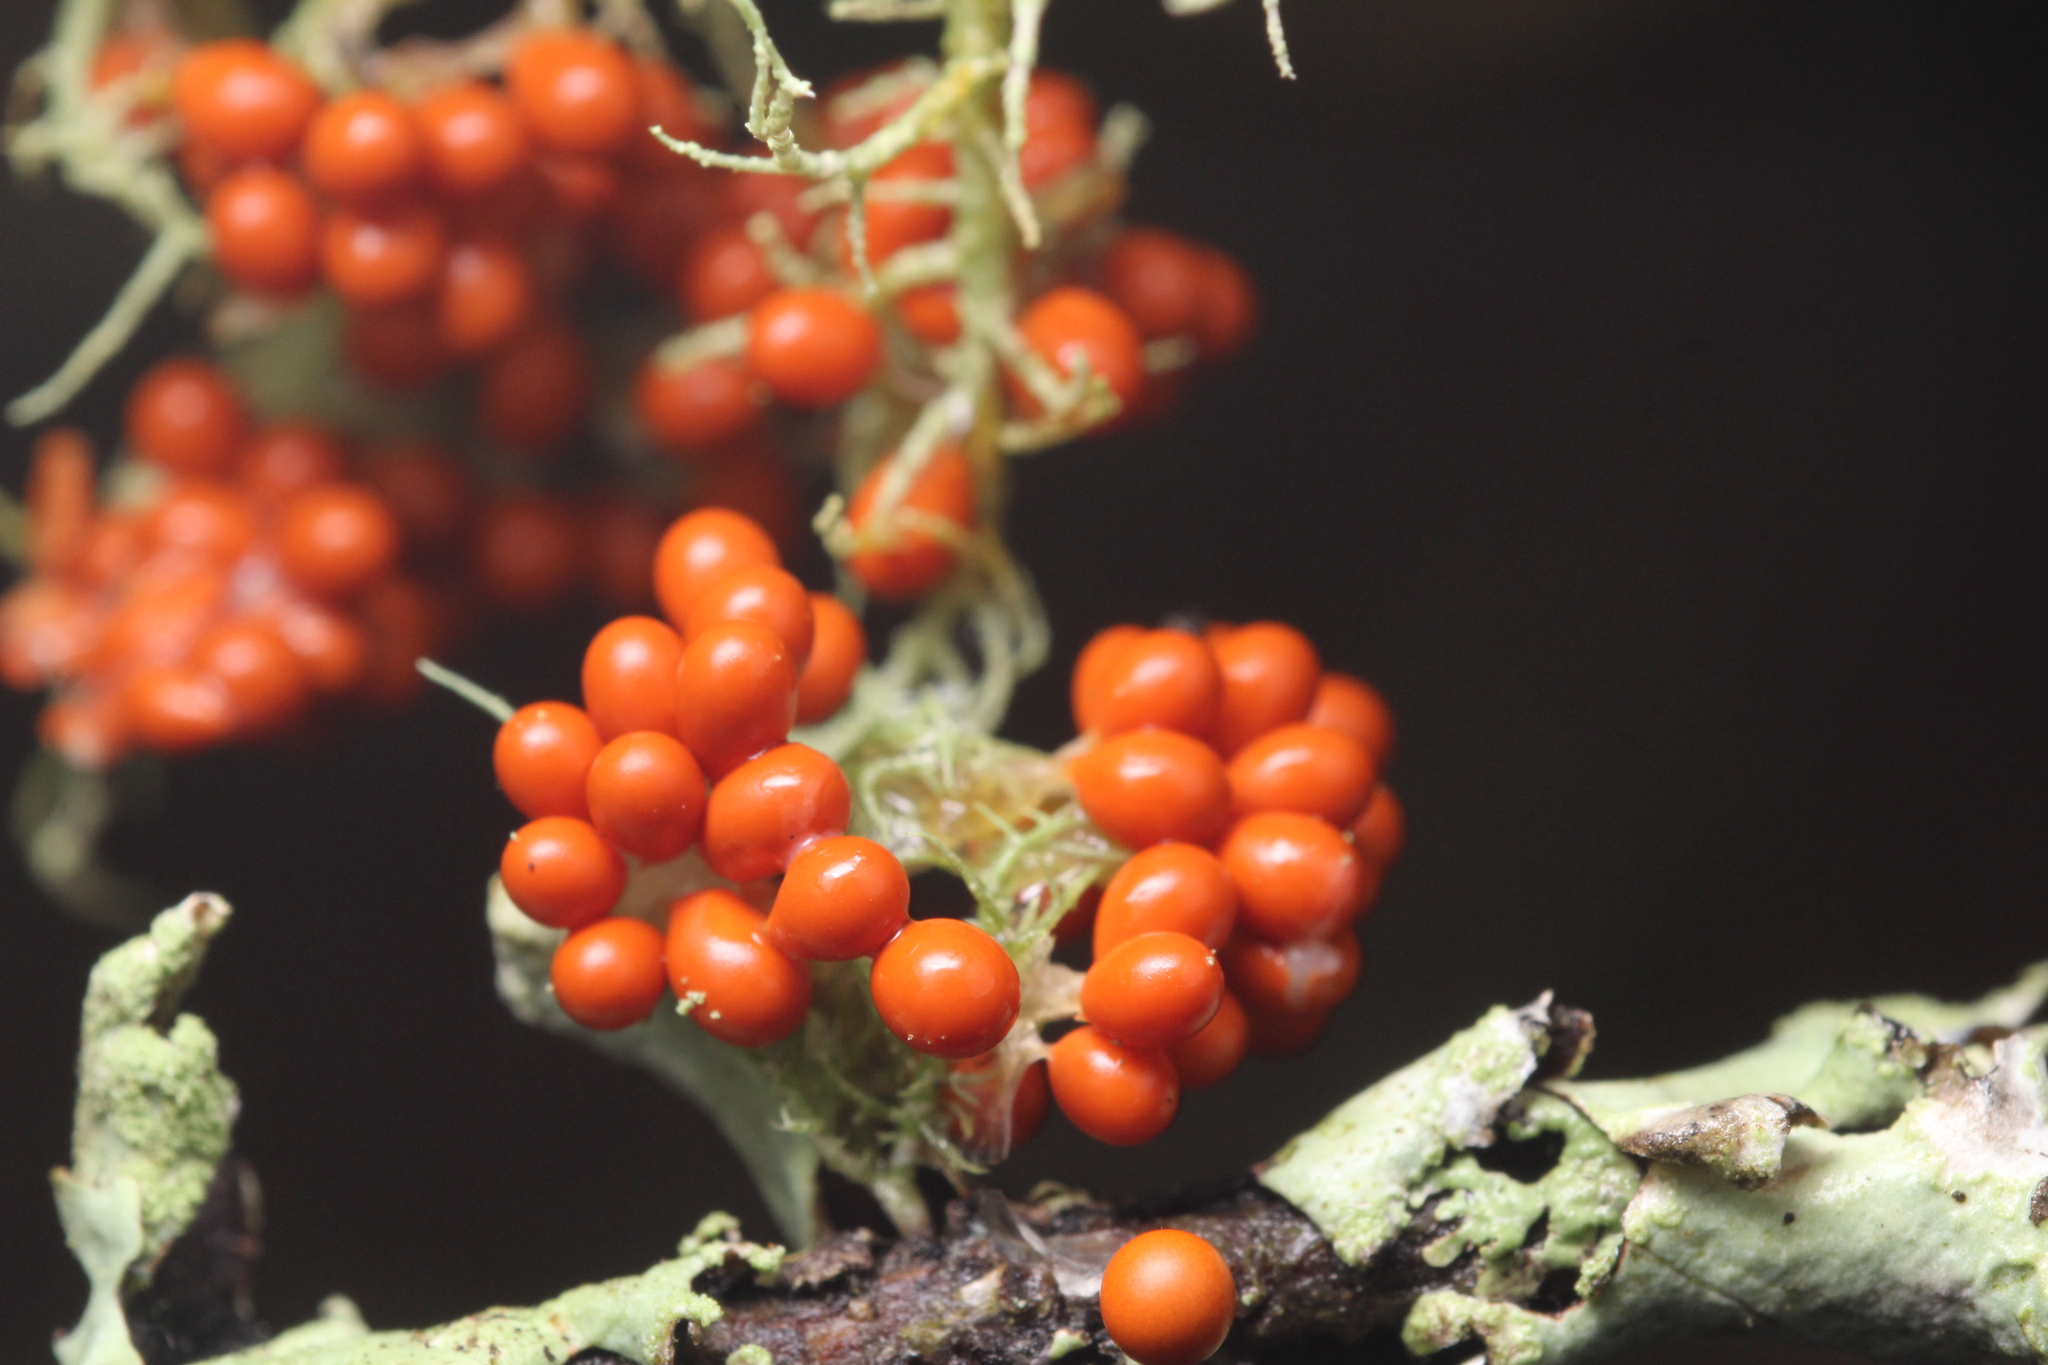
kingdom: Protozoa
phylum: Mycetozoa
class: Myxomycetes
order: Physarales
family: Physaraceae
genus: Leocarpus
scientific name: Leocarpus fragilis
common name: Insect-egg slime
